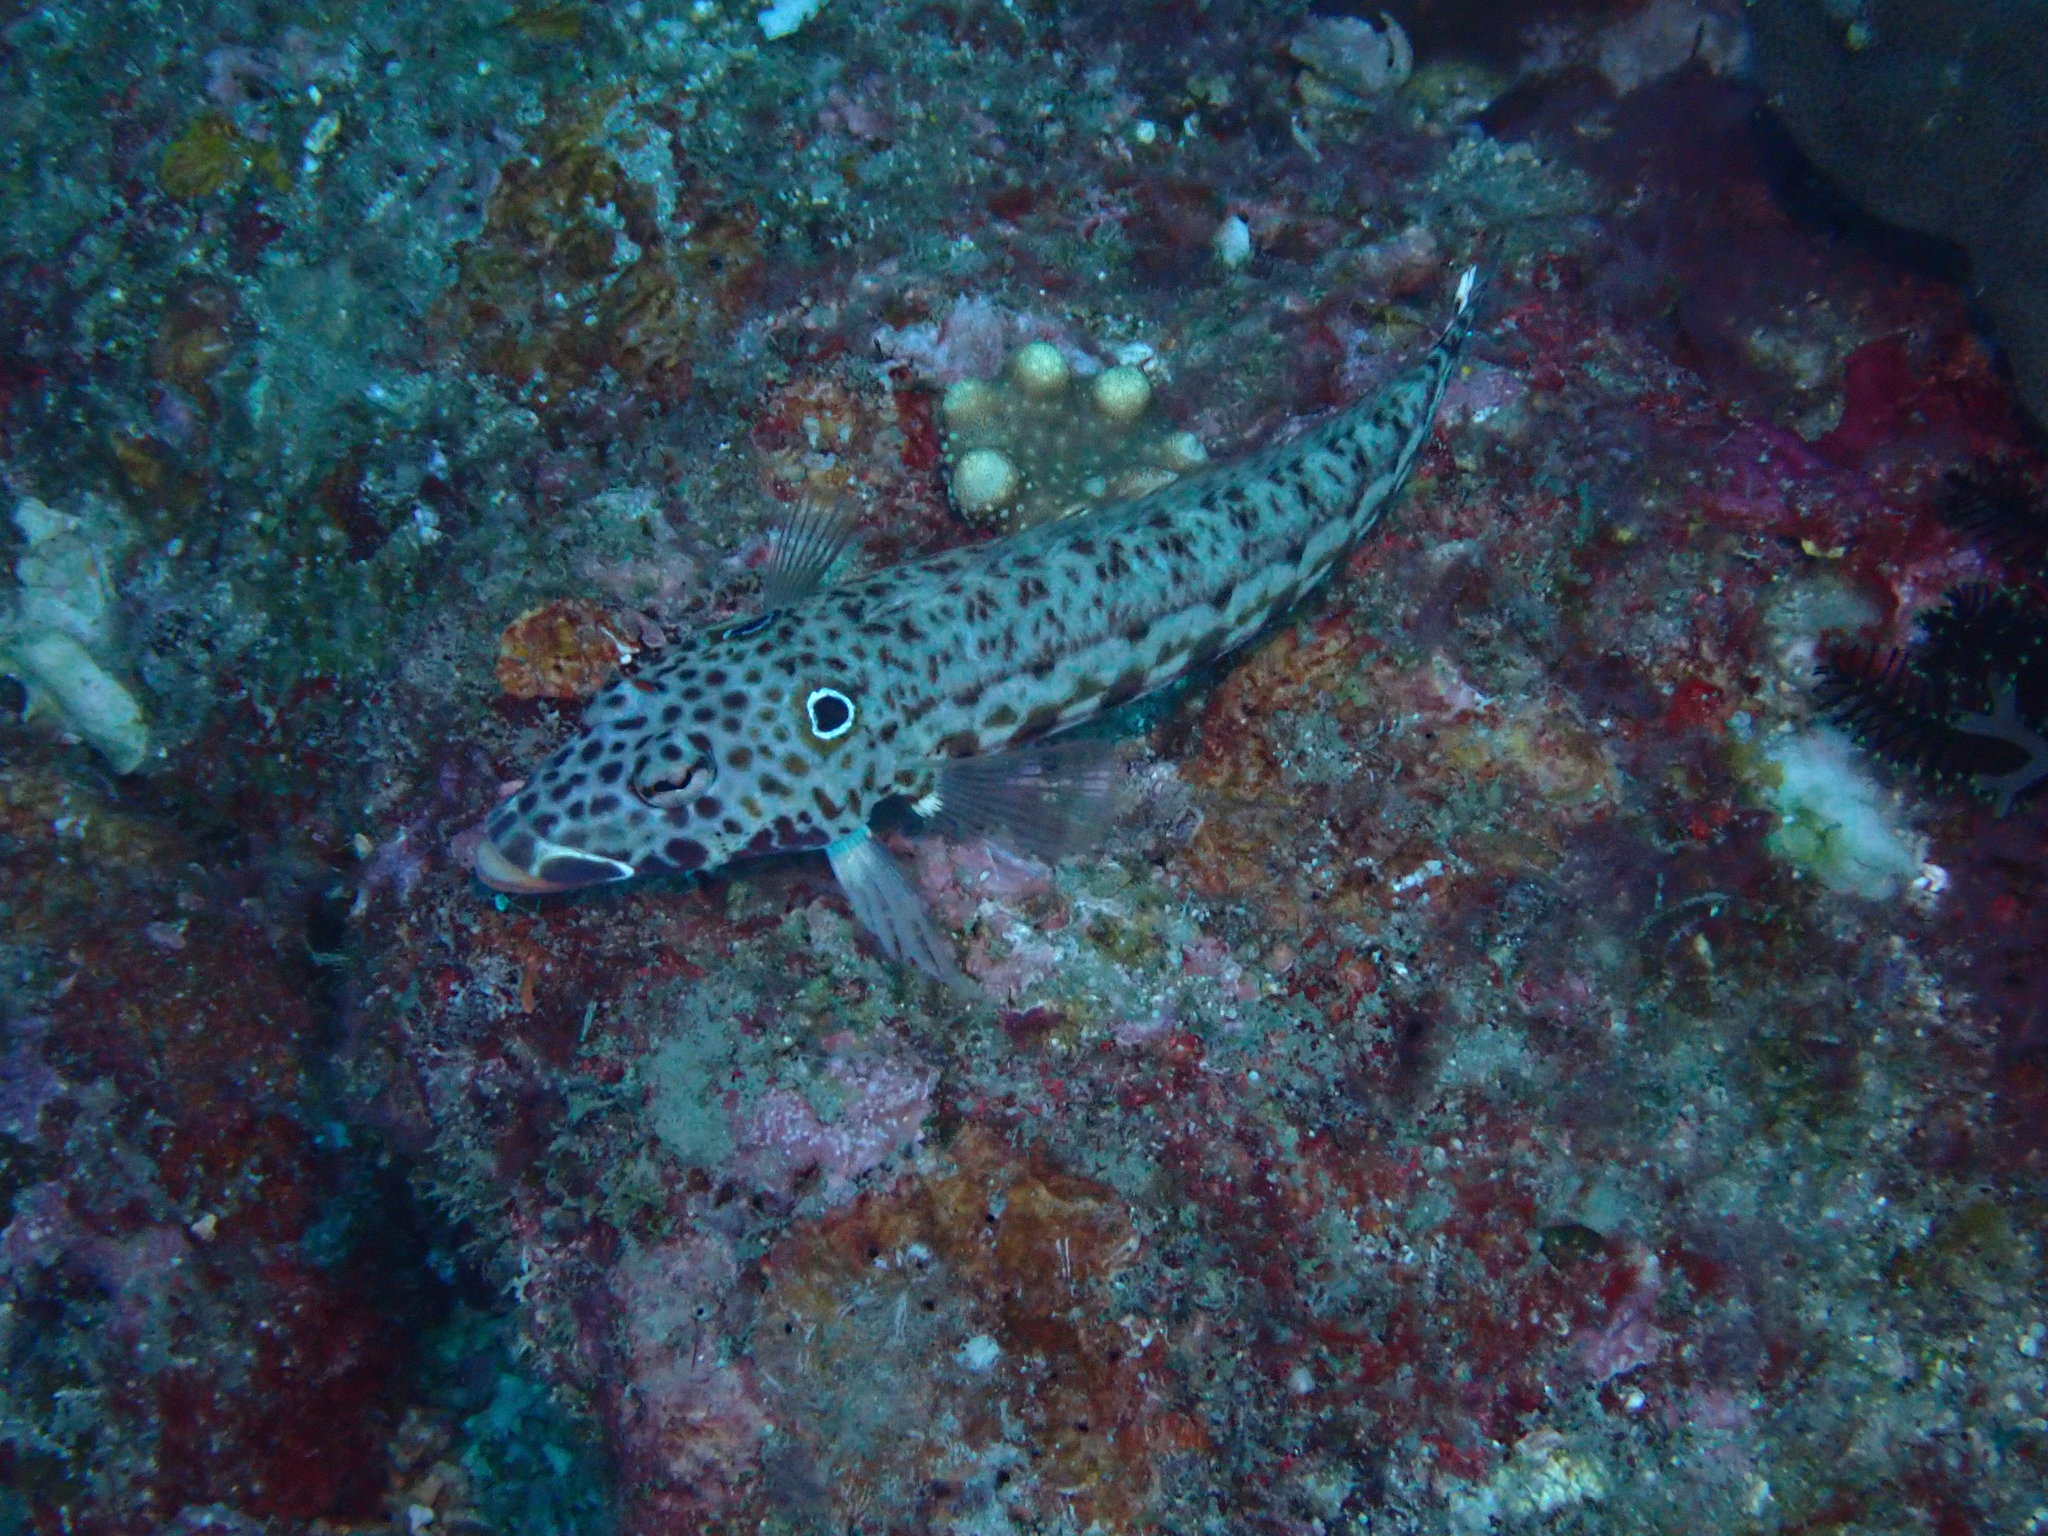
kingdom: Animalia
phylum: Chordata
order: Perciformes
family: Pinguipedidae
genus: Parapercis
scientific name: Parapercis clathrata
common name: Latticed sandperch
